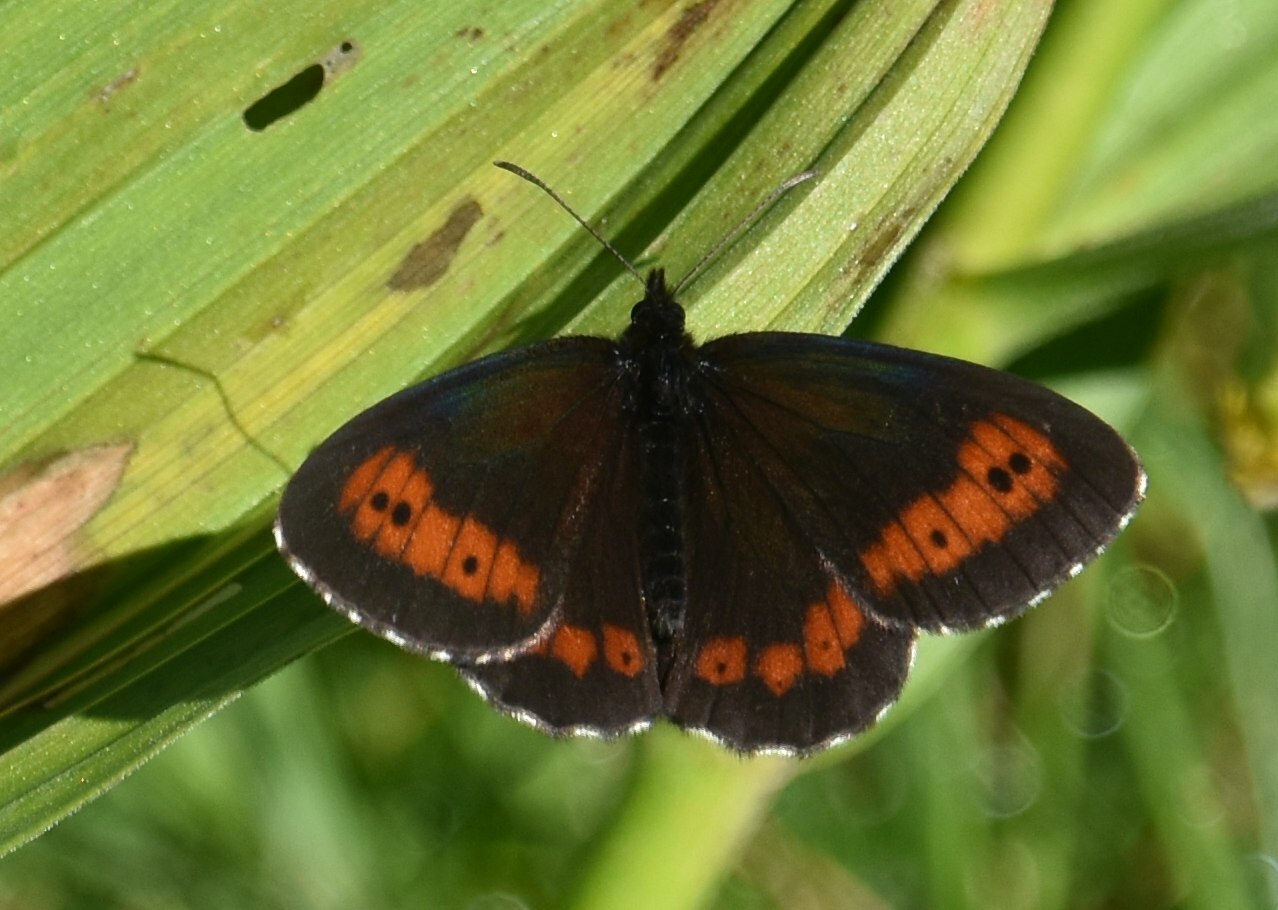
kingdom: Animalia
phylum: Arthropoda
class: Insecta
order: Lepidoptera
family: Nymphalidae
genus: Erebia
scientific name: Erebia euryale
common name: Large ringlet
